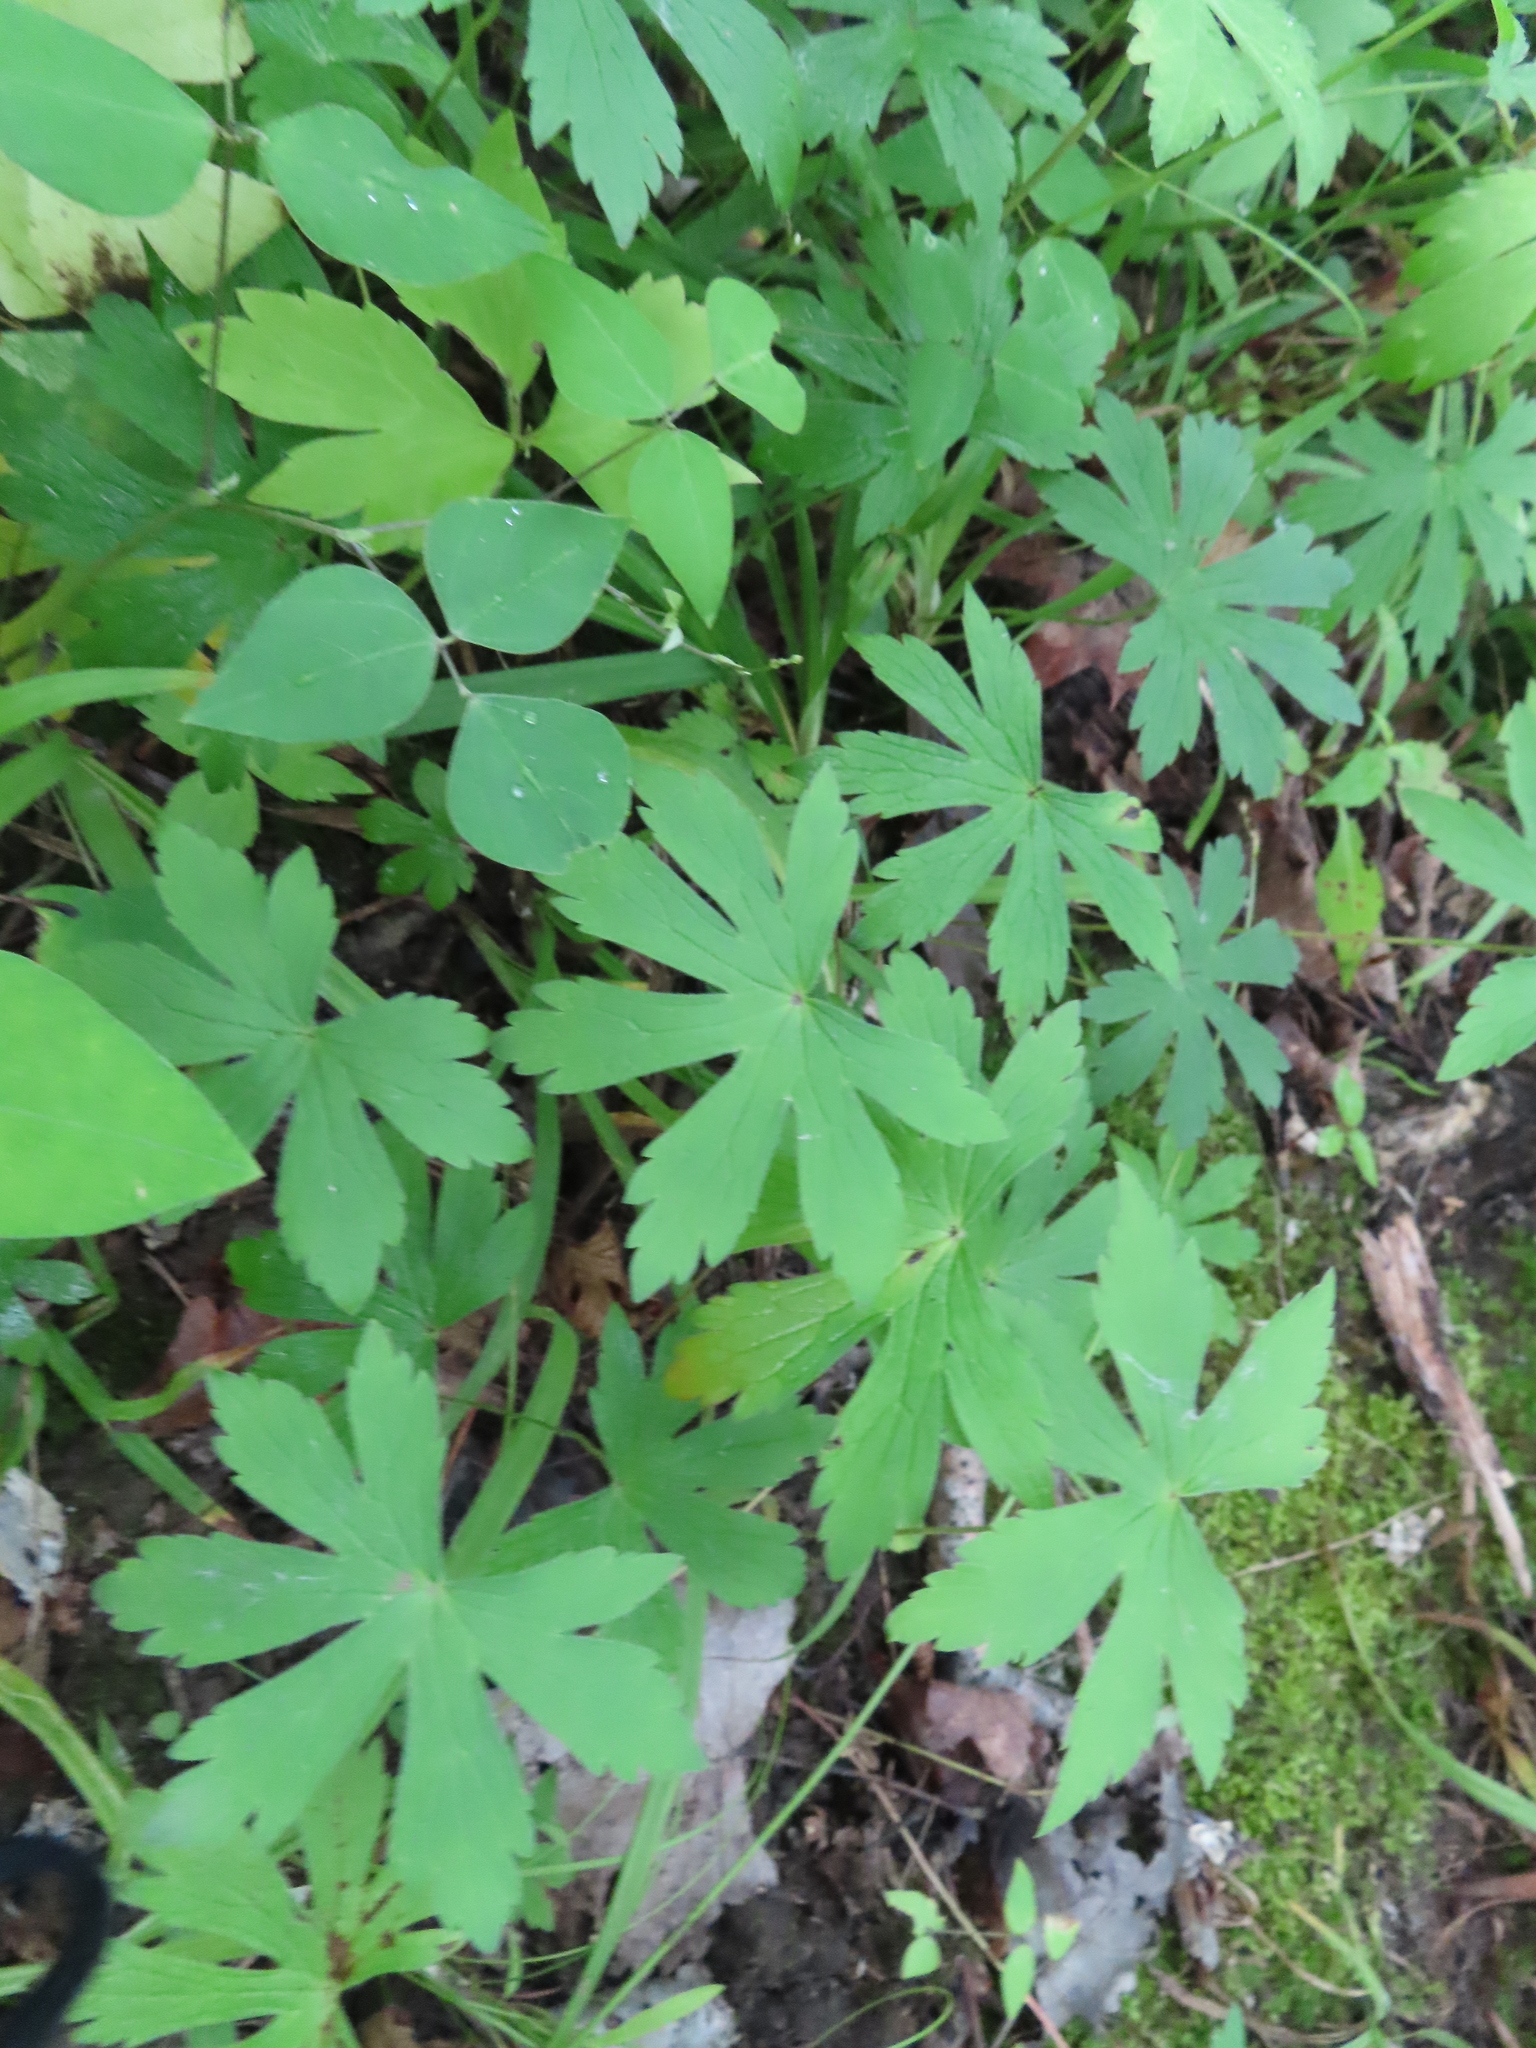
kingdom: Plantae
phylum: Tracheophyta
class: Magnoliopsida
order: Geraniales
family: Geraniaceae
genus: Geranium
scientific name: Geranium maculatum
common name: Spotted geranium
